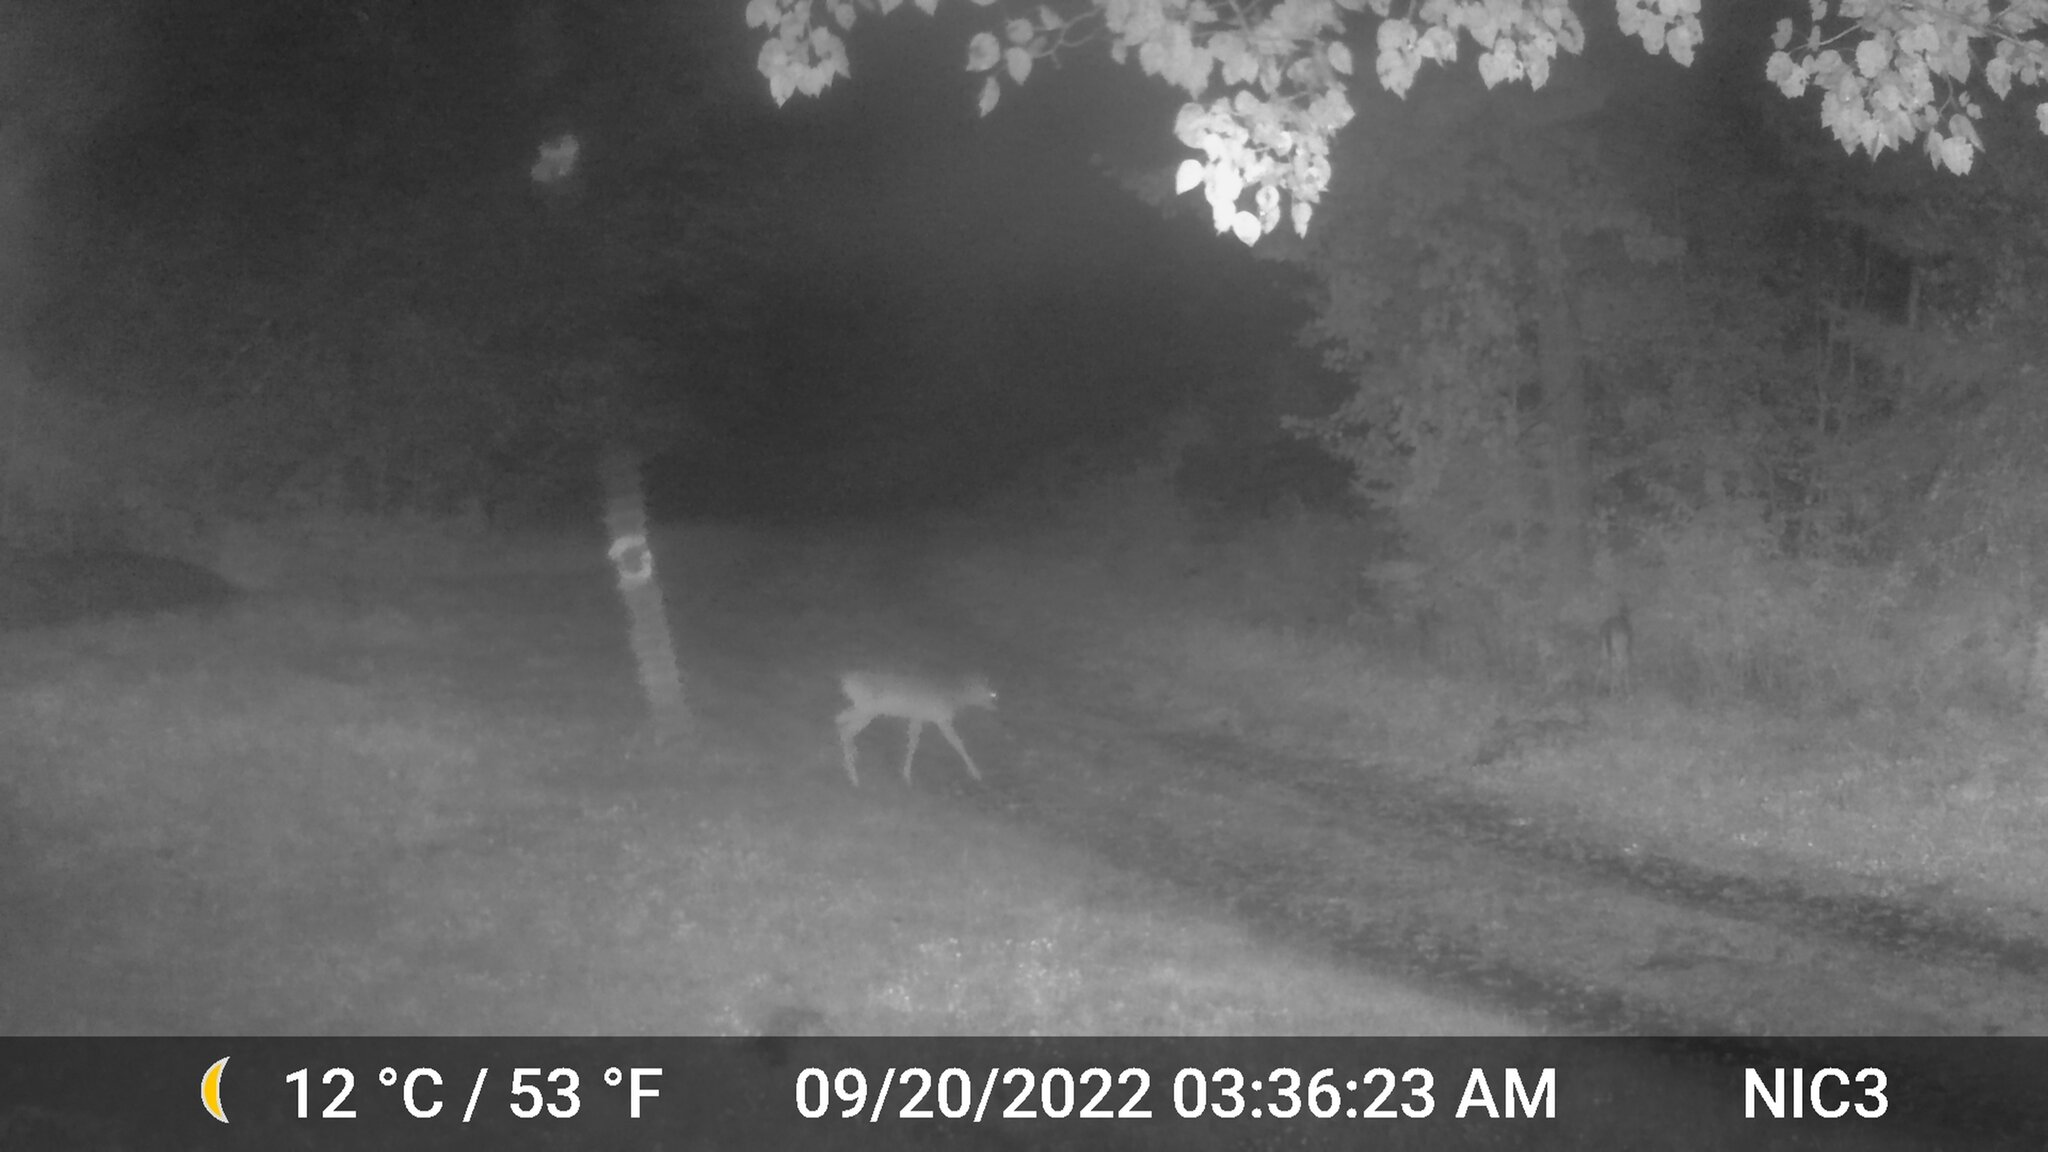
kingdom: Animalia
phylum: Chordata
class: Mammalia
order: Artiodactyla
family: Cervidae
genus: Odocoileus
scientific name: Odocoileus virginianus
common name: White-tailed deer
